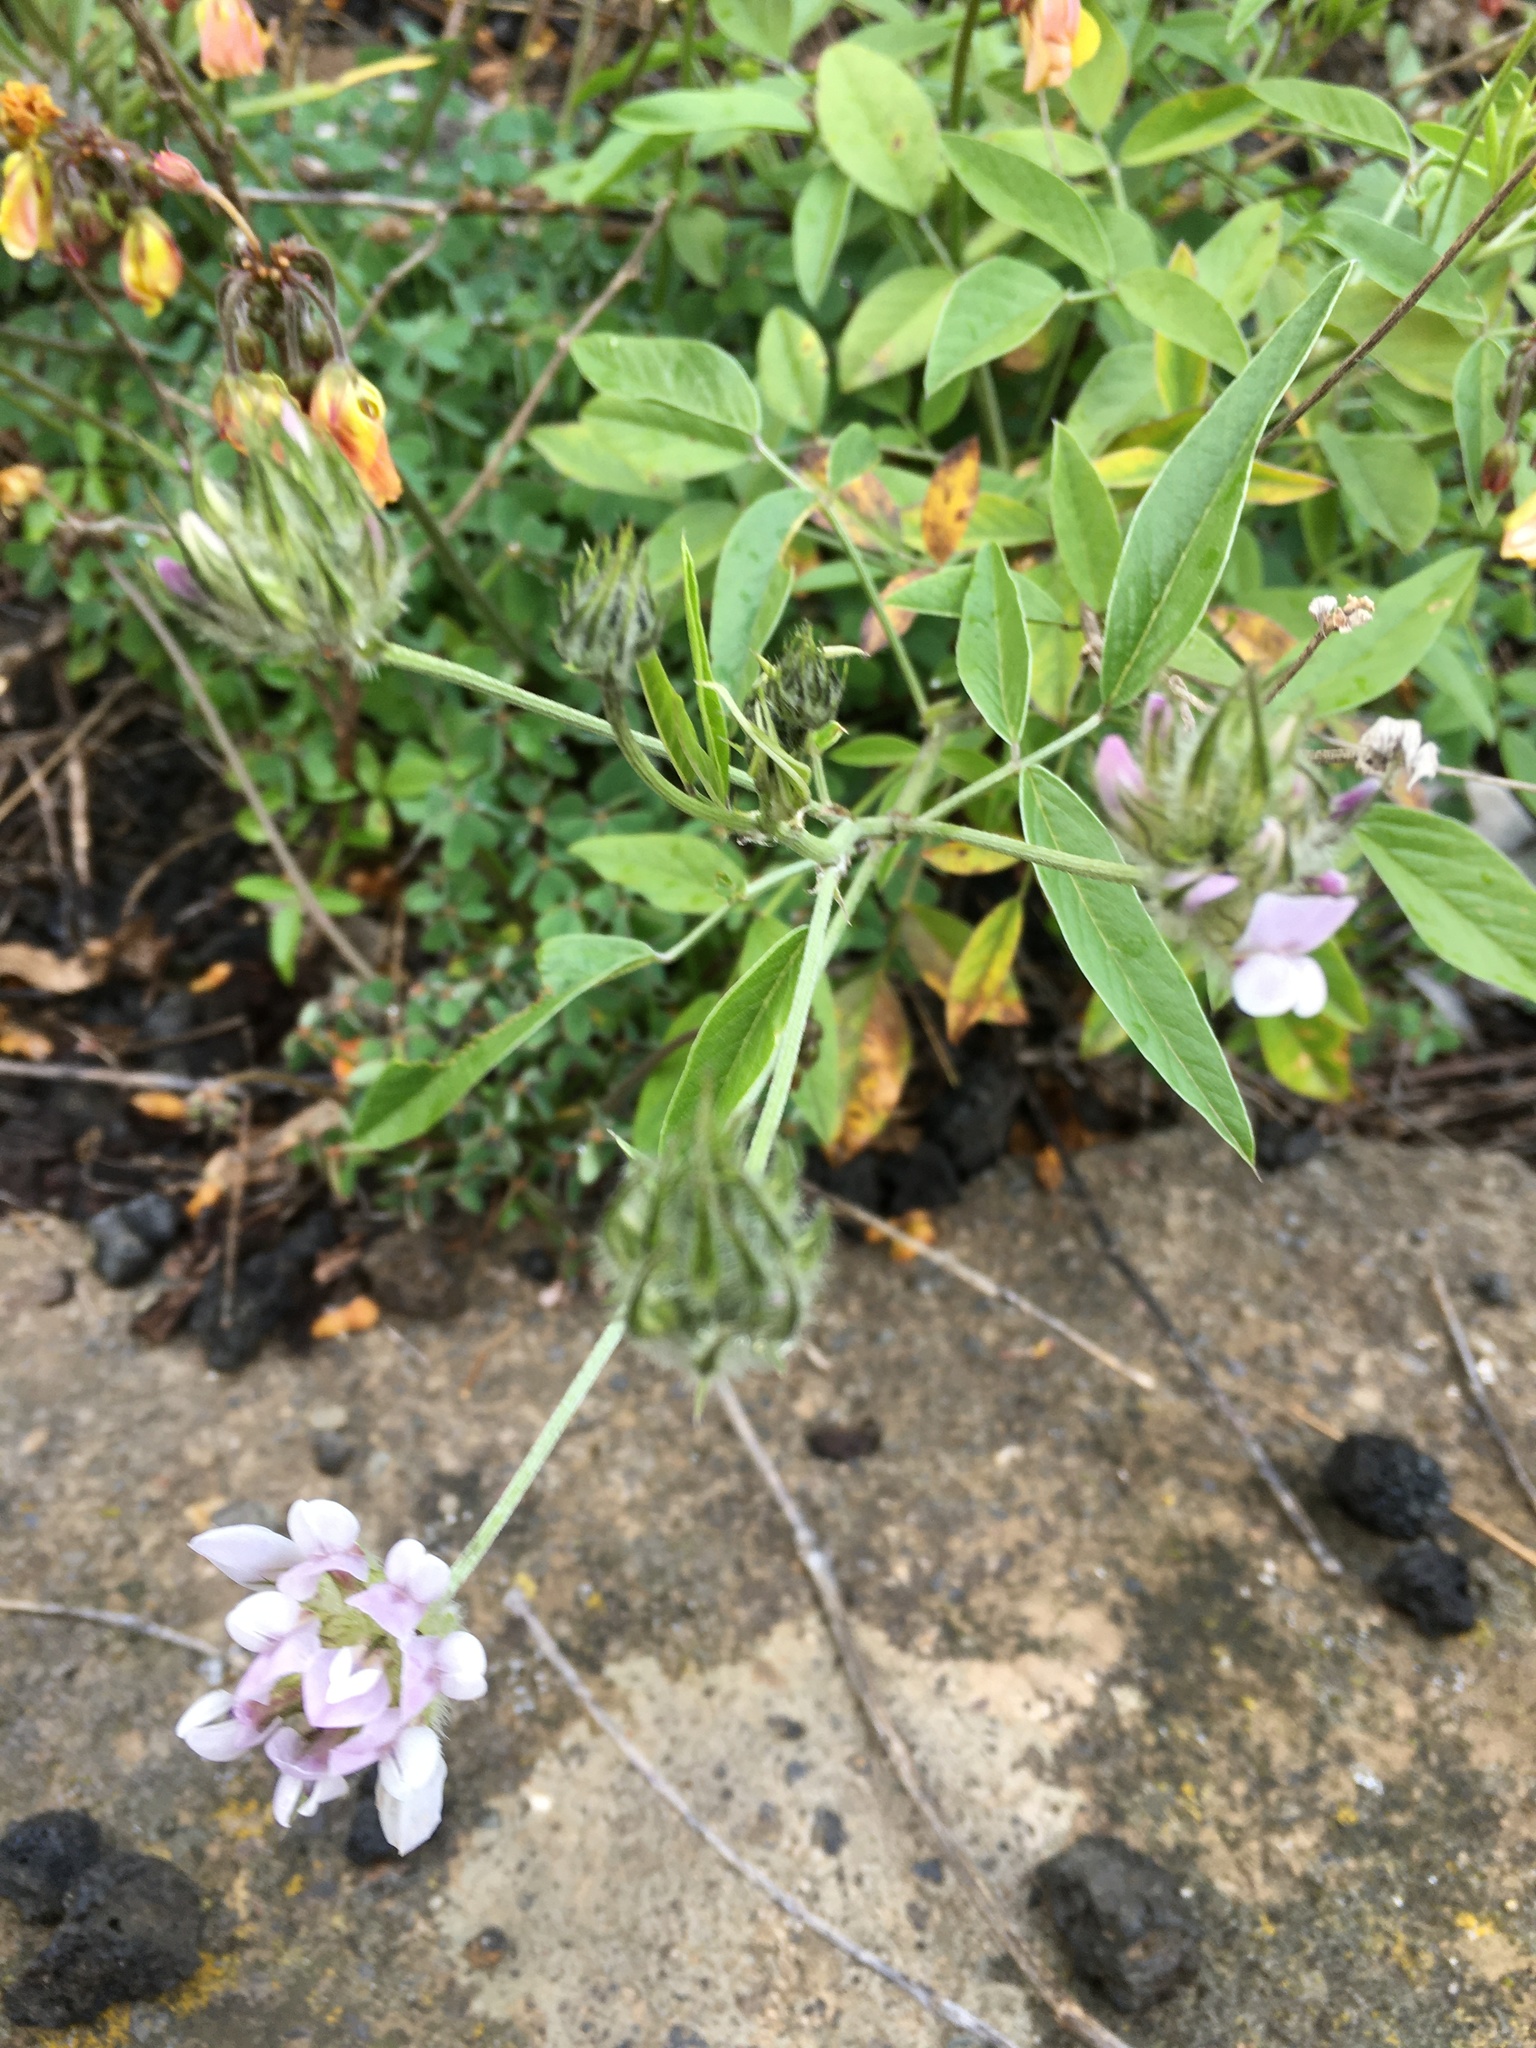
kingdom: Plantae
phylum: Tracheophyta
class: Magnoliopsida
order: Fabales
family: Fabaceae
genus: Bituminaria
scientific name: Bituminaria bituminosa
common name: Arabian pea
